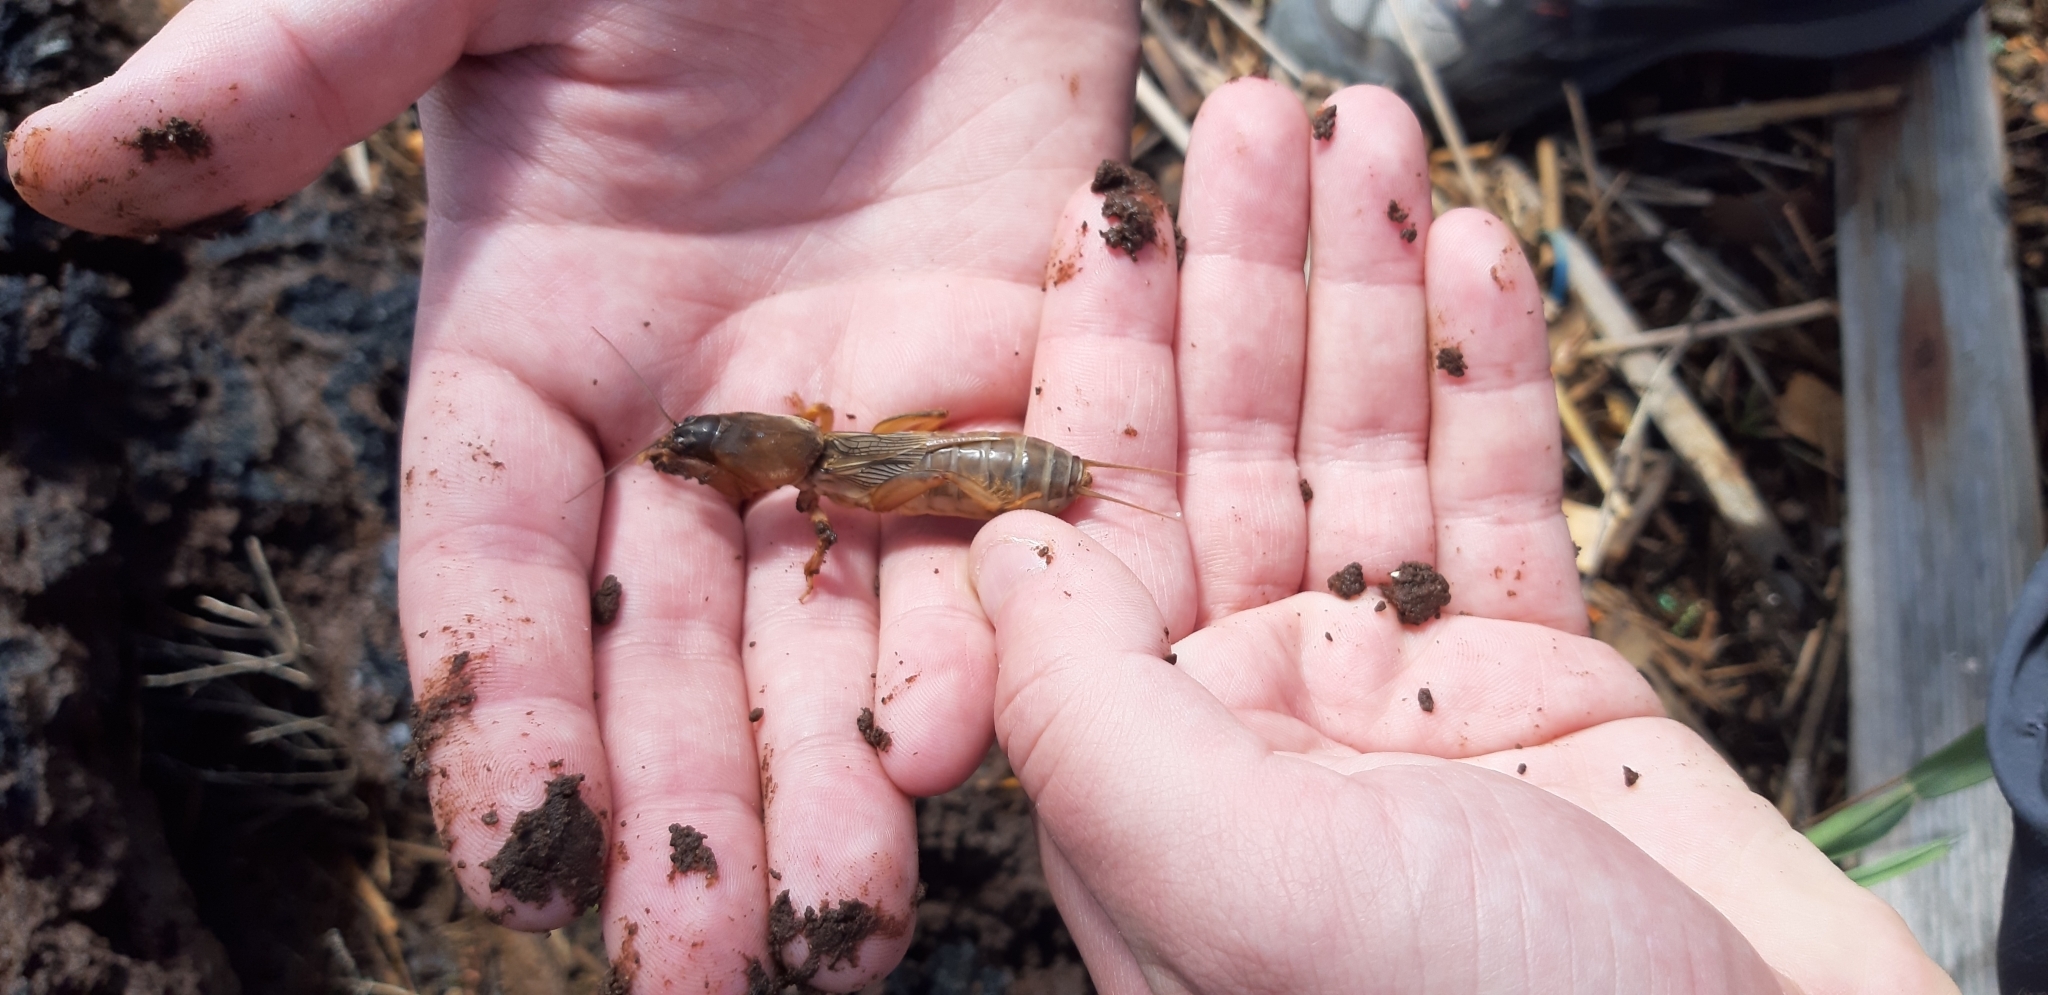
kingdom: Animalia
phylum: Arthropoda
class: Insecta
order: Orthoptera
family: Gryllotalpidae
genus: Gryllotalpa
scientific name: Gryllotalpa gryllotalpa
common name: European mole cricket
